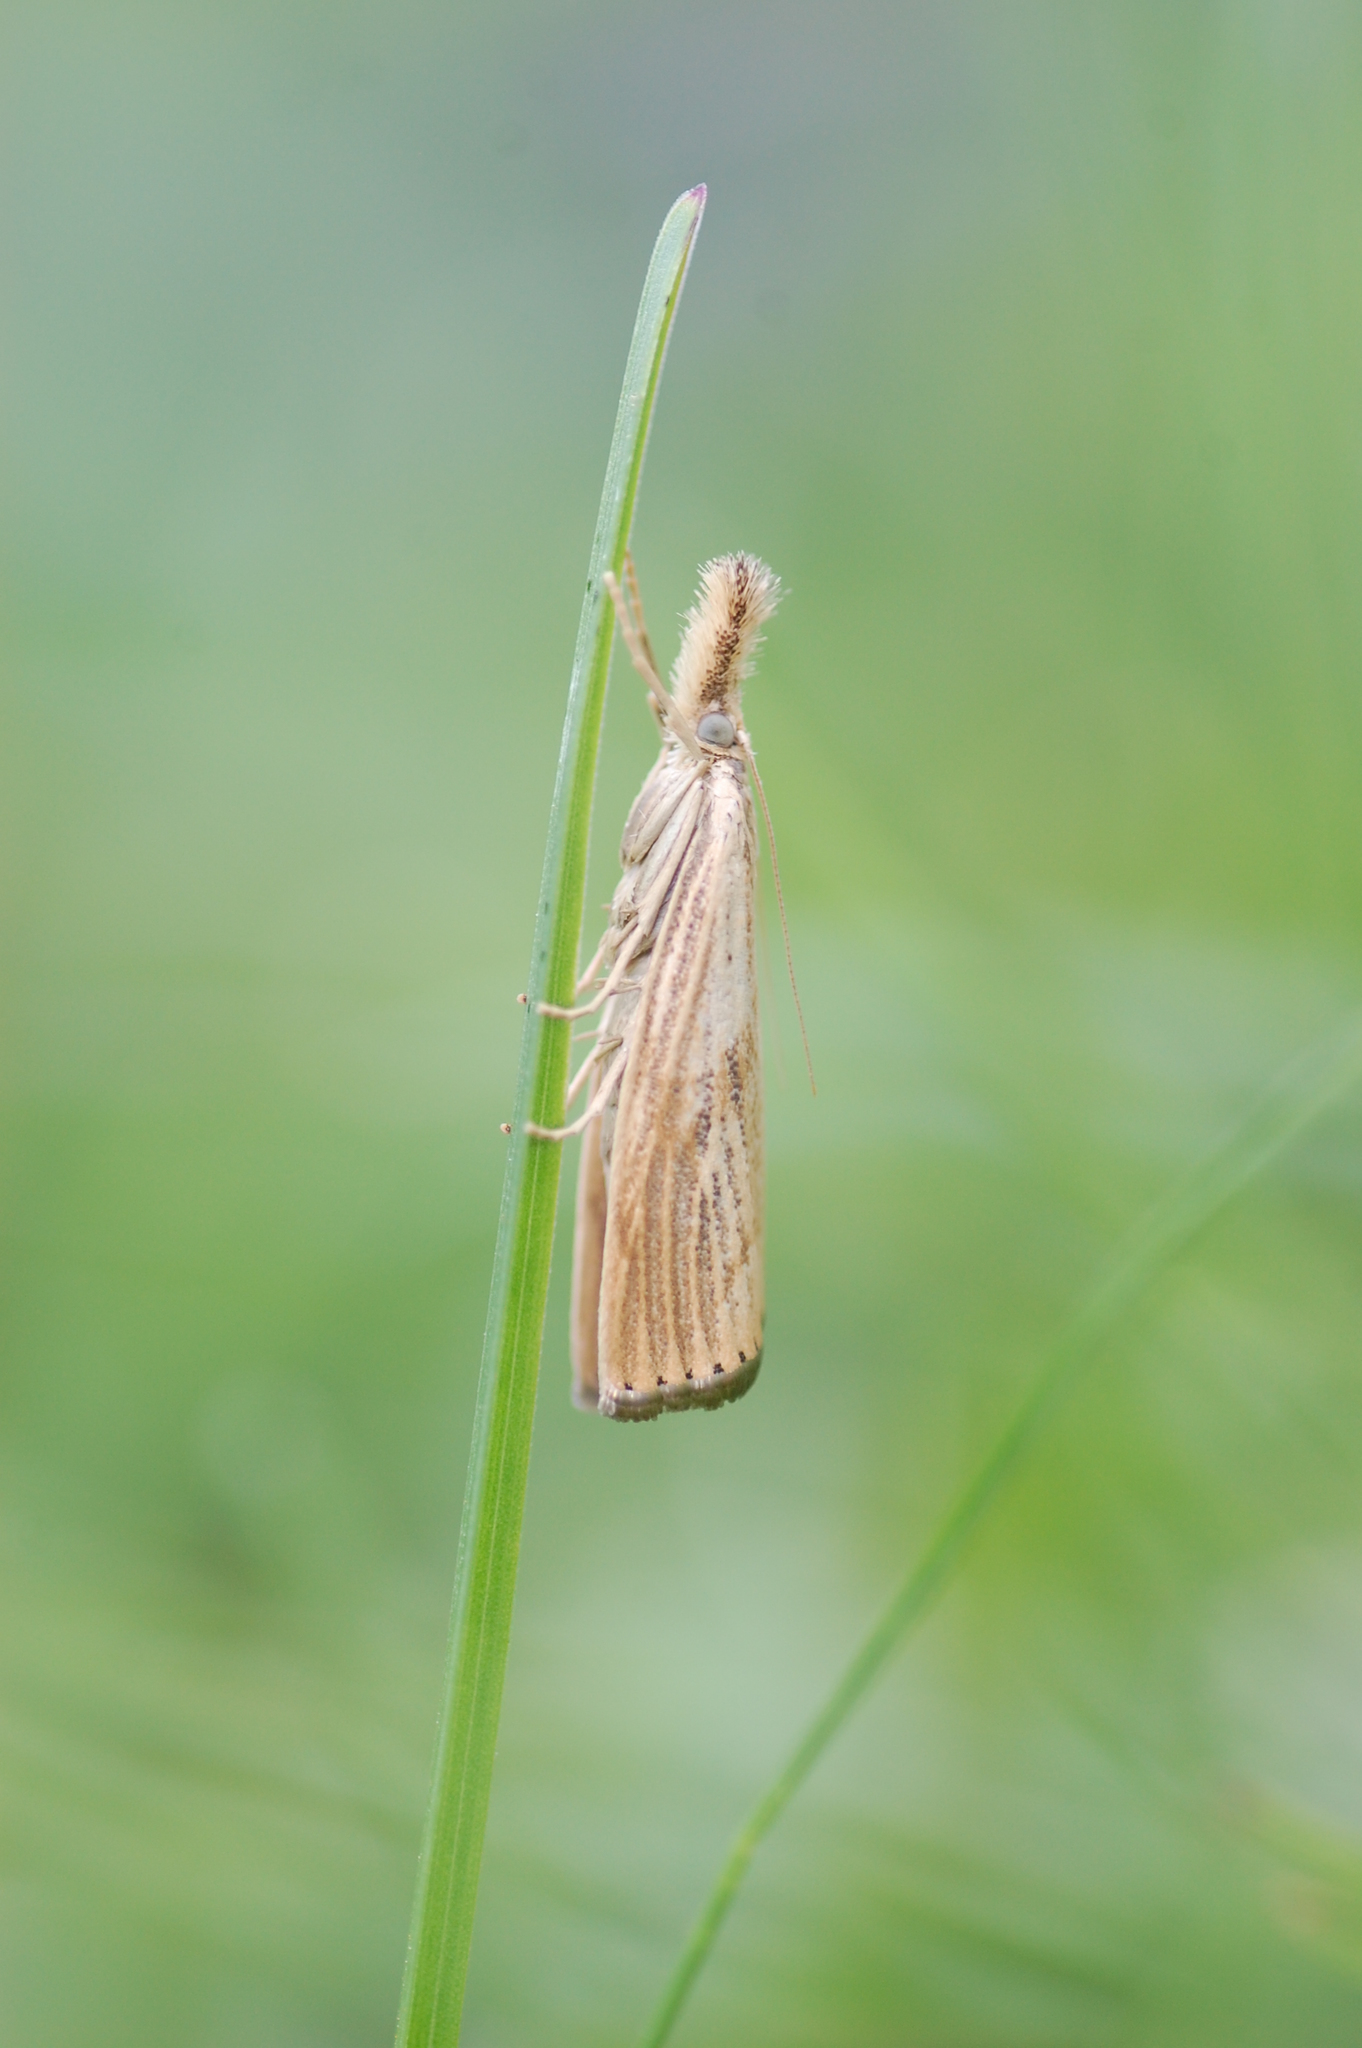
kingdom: Animalia
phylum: Arthropoda
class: Insecta
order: Lepidoptera
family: Crambidae
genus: Agriphila
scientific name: Agriphila ruricolellus
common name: Lesser vagabond sod webworm
